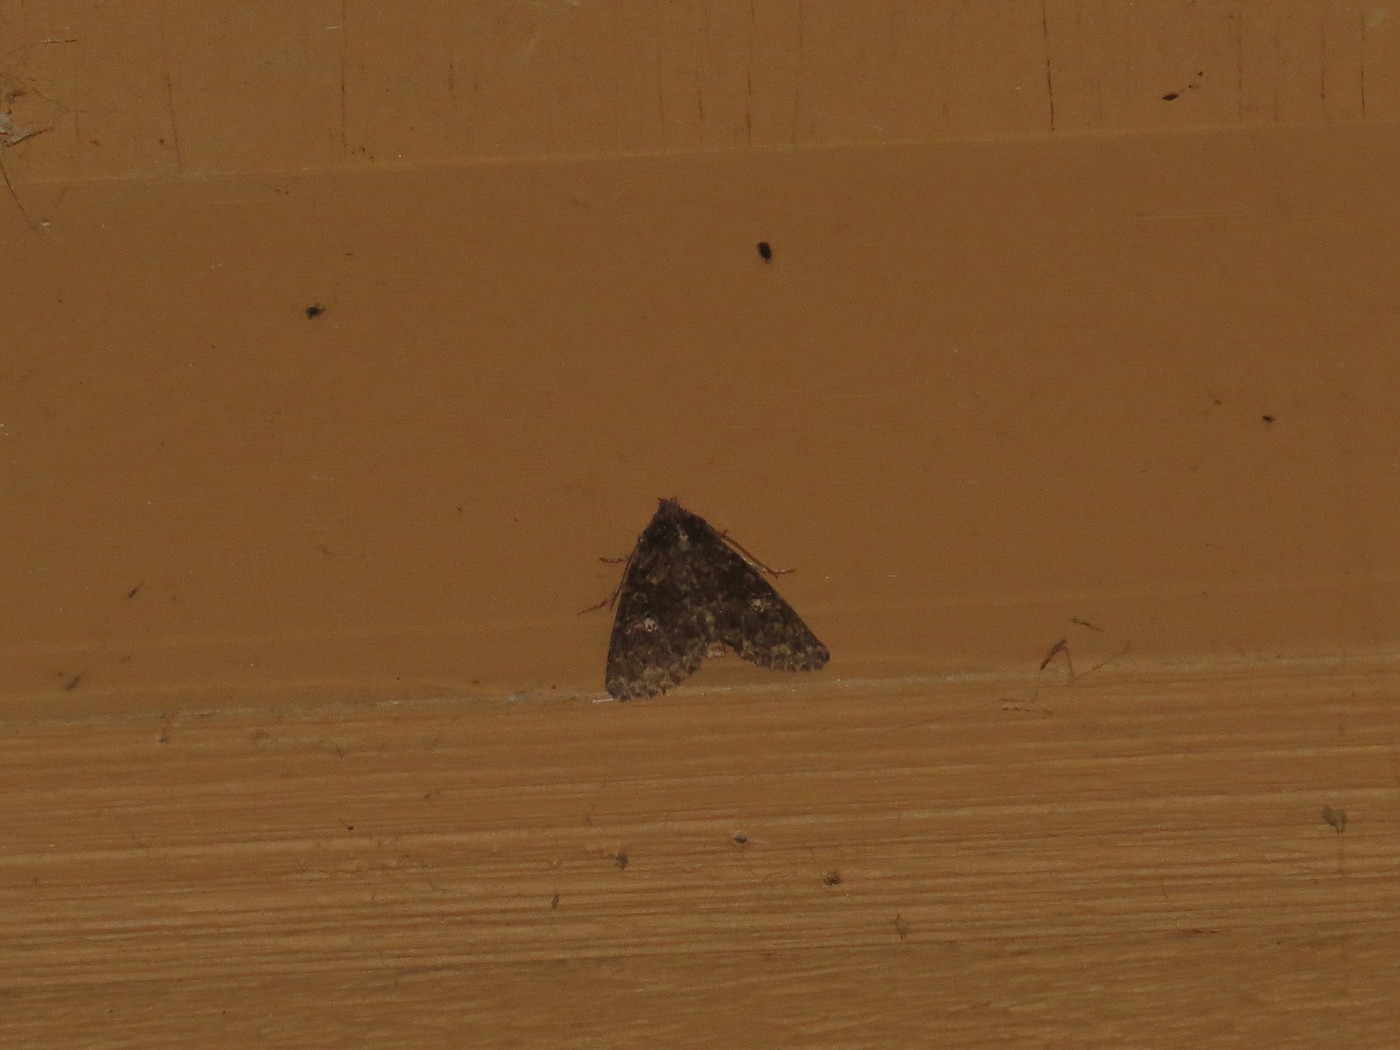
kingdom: Animalia
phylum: Arthropoda
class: Insecta
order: Lepidoptera
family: Noctuidae
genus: Condica
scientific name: Condica vecors
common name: Dusky groundling
